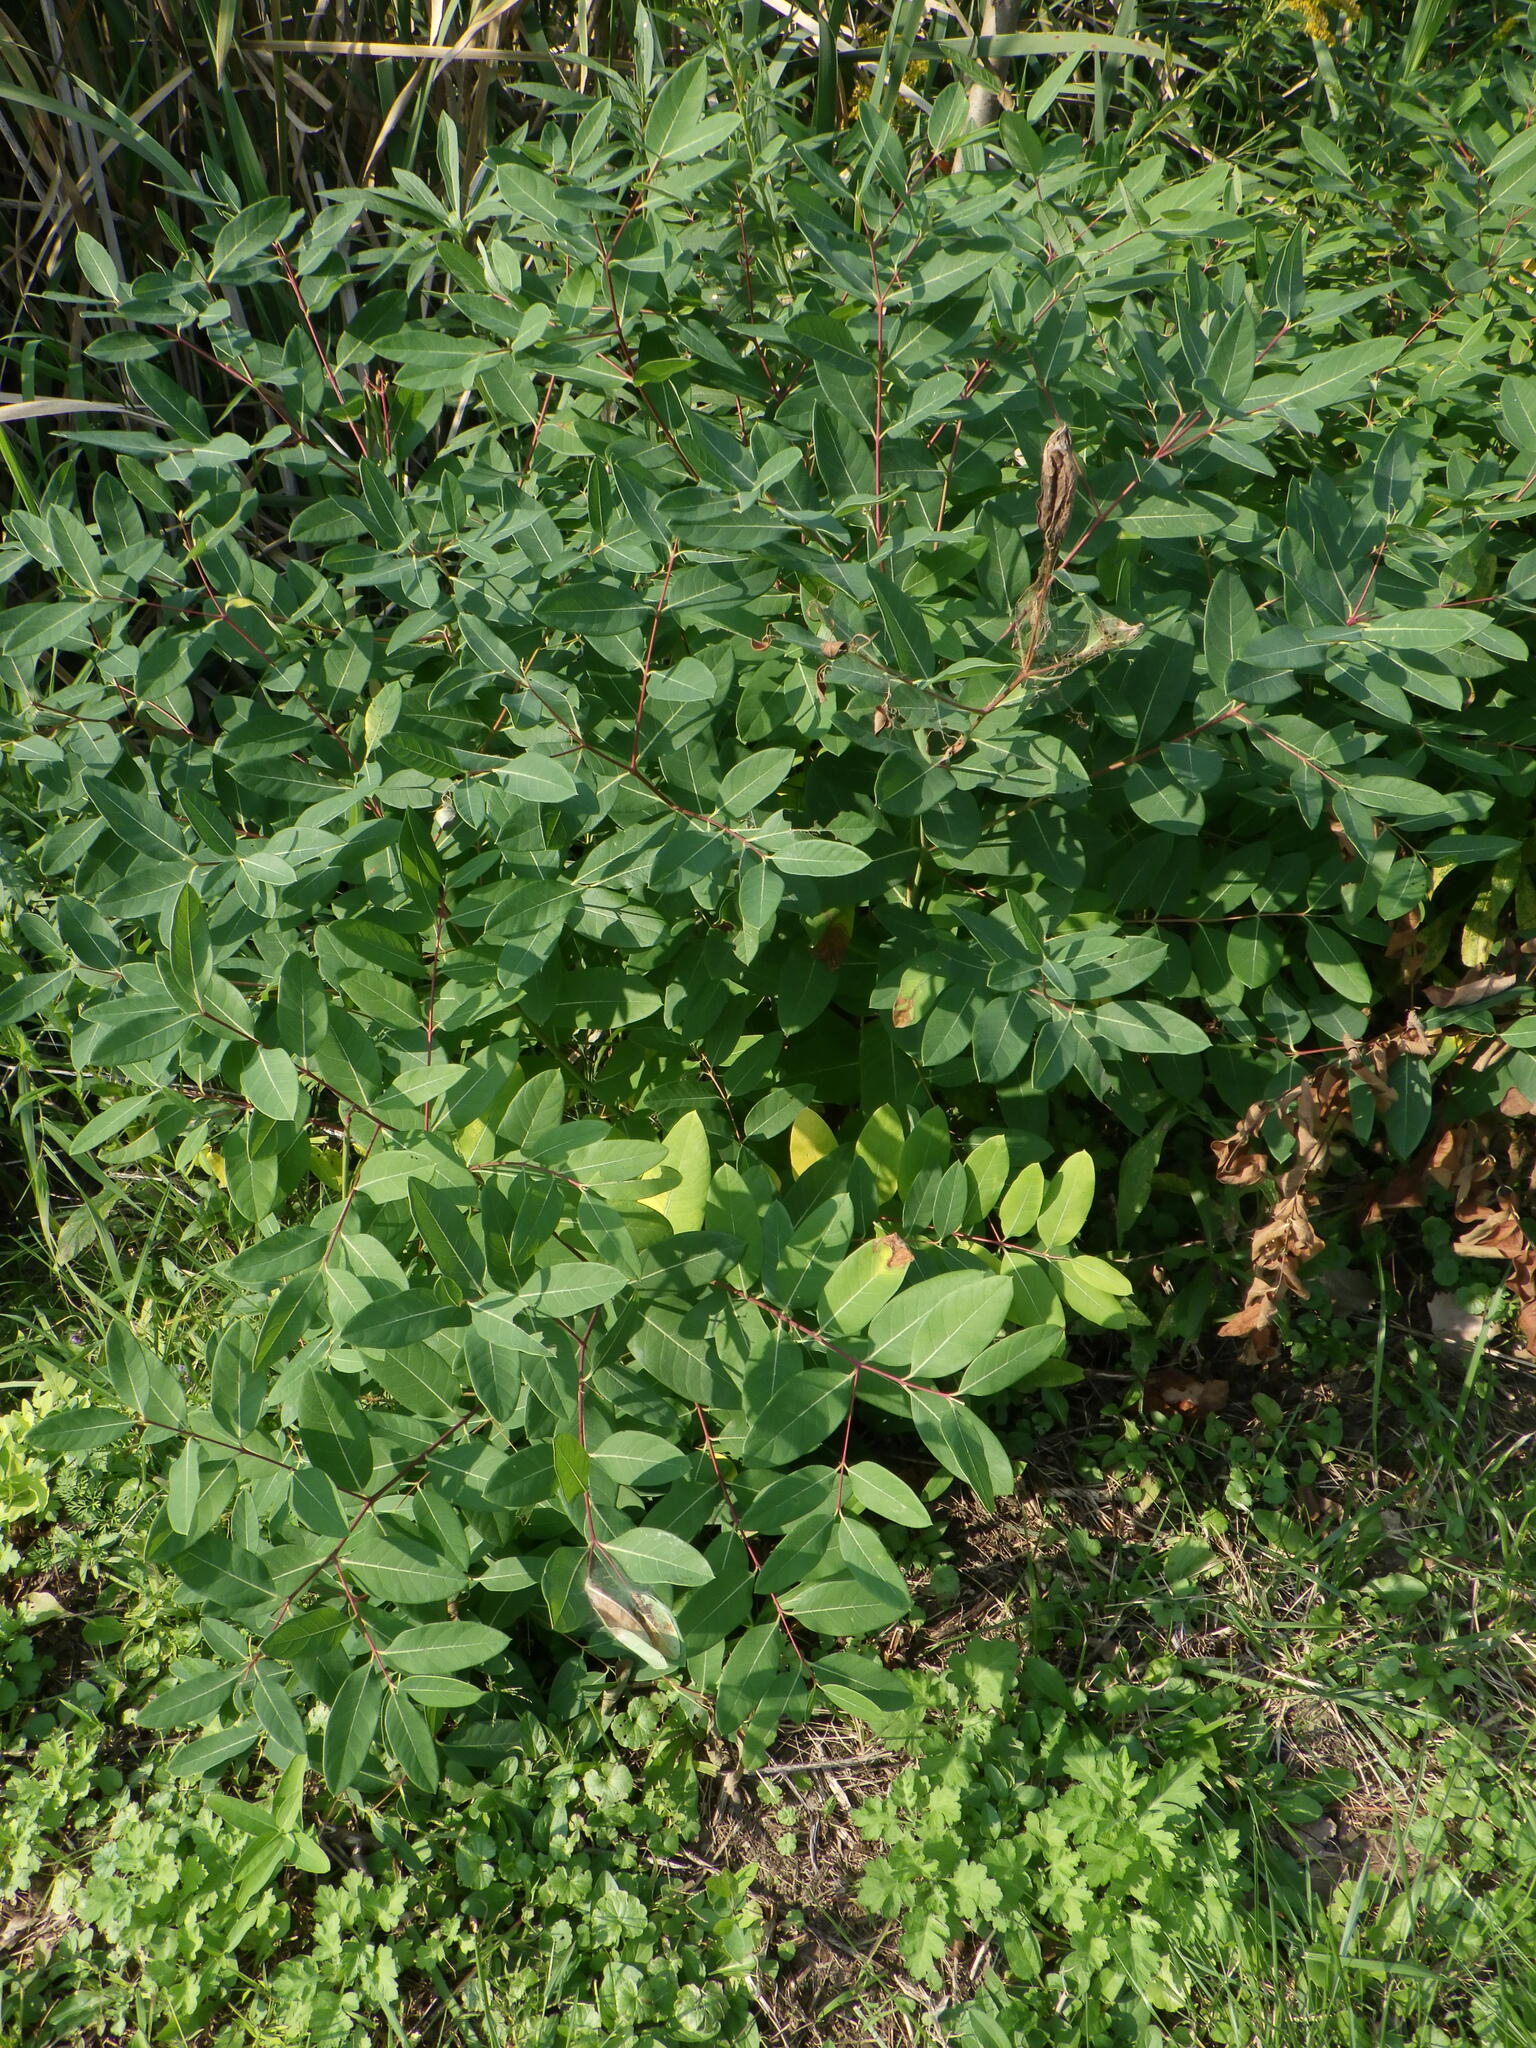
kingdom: Plantae
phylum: Tracheophyta
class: Magnoliopsida
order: Gentianales
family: Apocynaceae
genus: Apocynum
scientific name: Apocynum cannabinum
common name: Hemp dogbane
